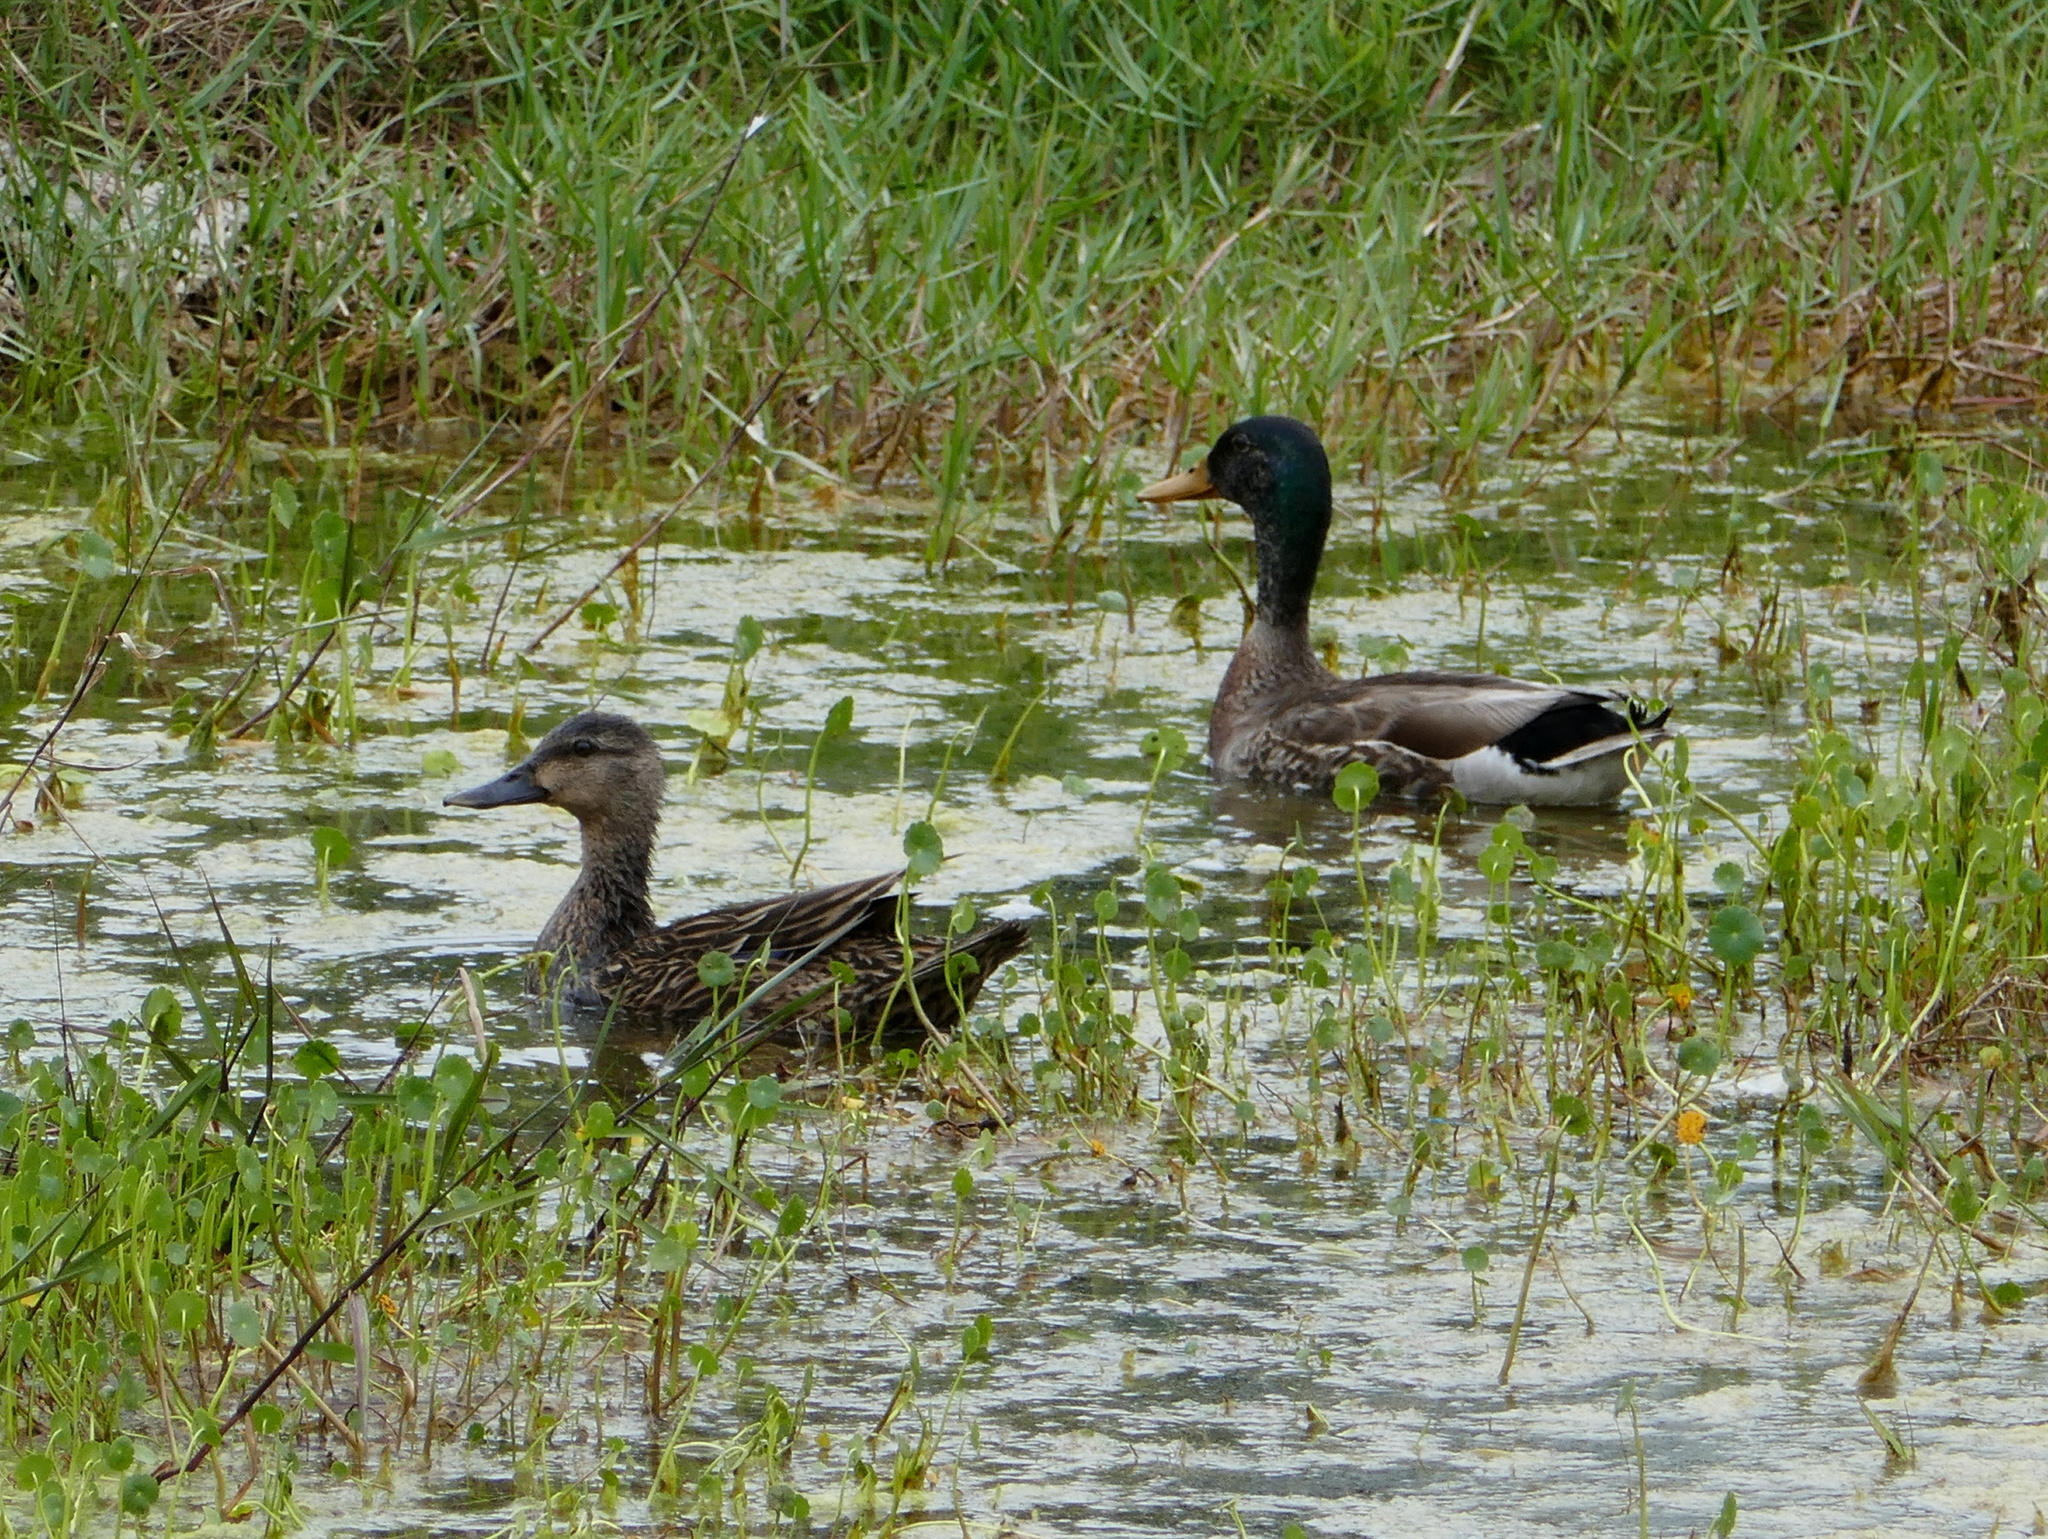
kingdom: Animalia
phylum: Chordata
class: Aves
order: Anseriformes
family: Anatidae
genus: Anas
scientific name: Anas platyrhynchos
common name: Mallard
